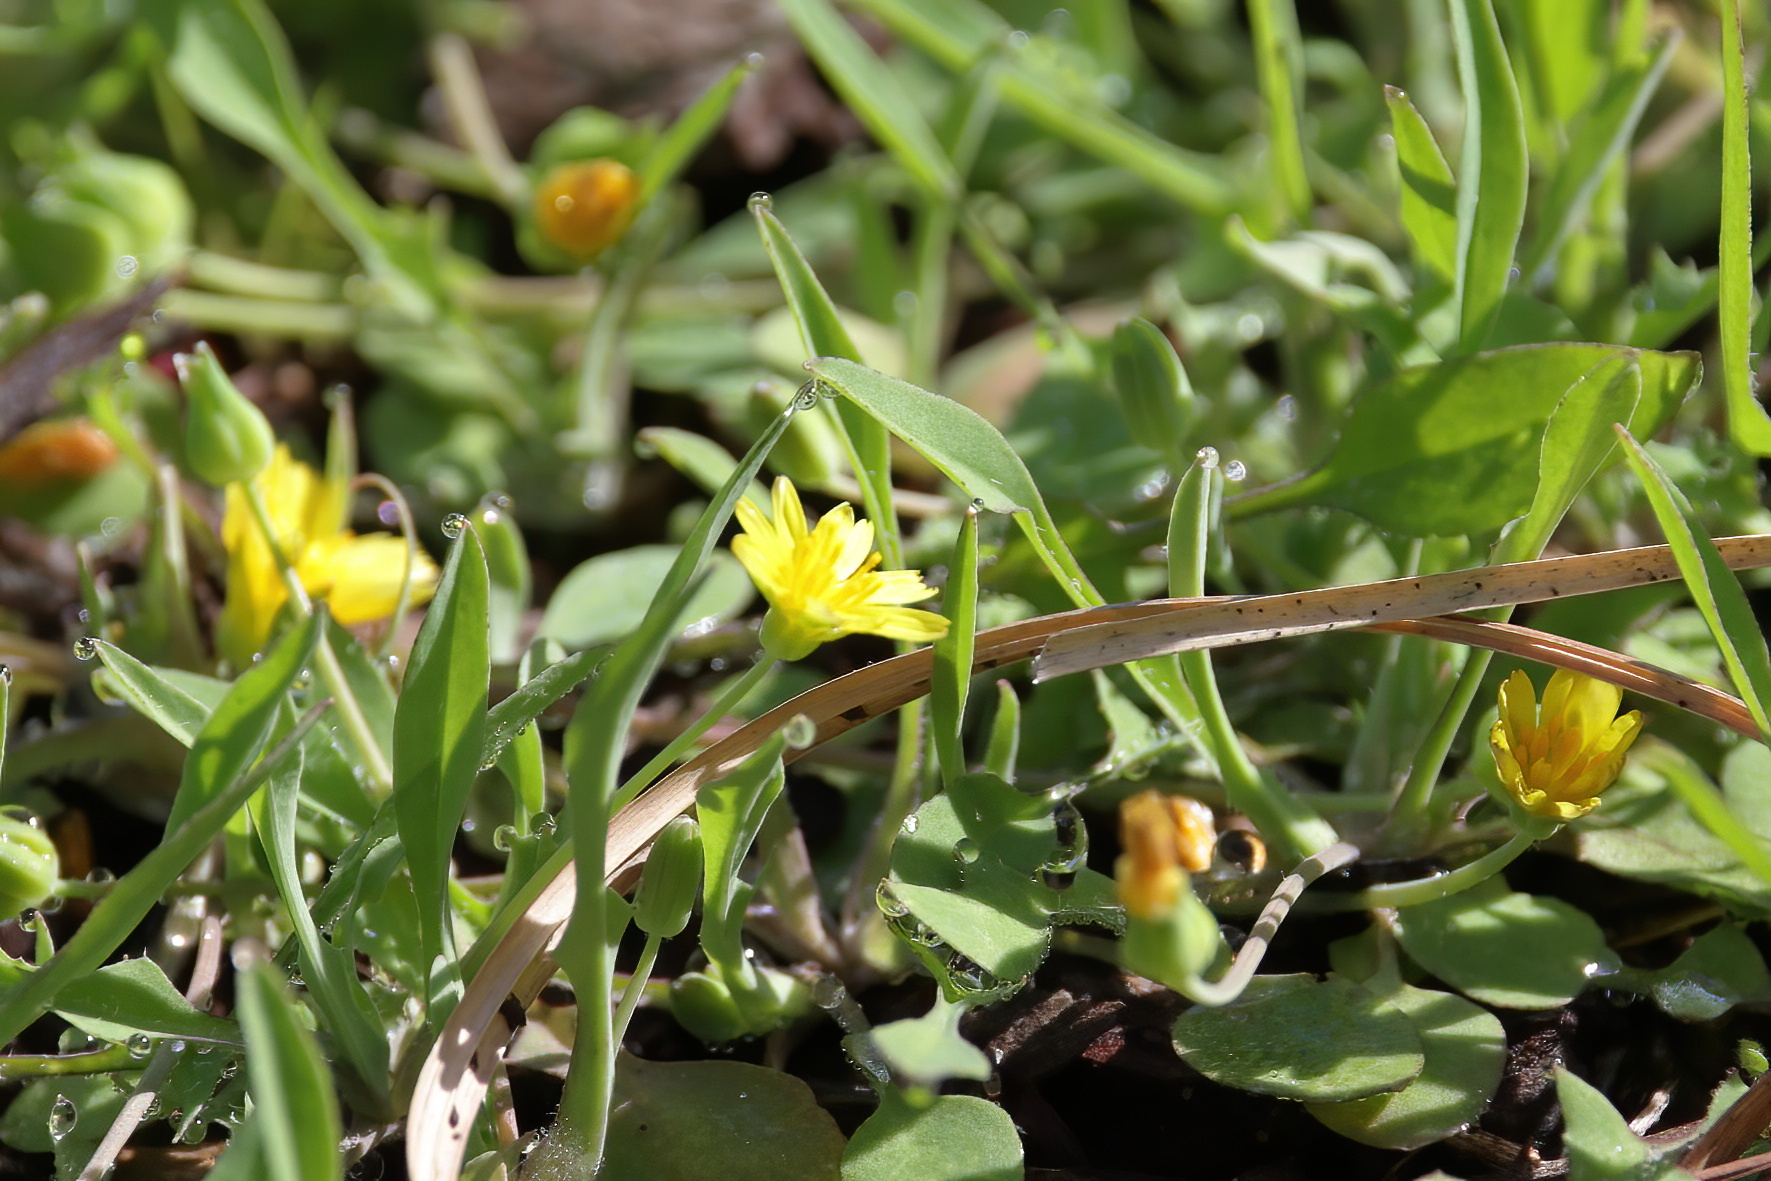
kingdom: Plantae
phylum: Tracheophyta
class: Magnoliopsida
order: Asterales
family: Asteraceae
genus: Krigia
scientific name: Krigia cespitosa
